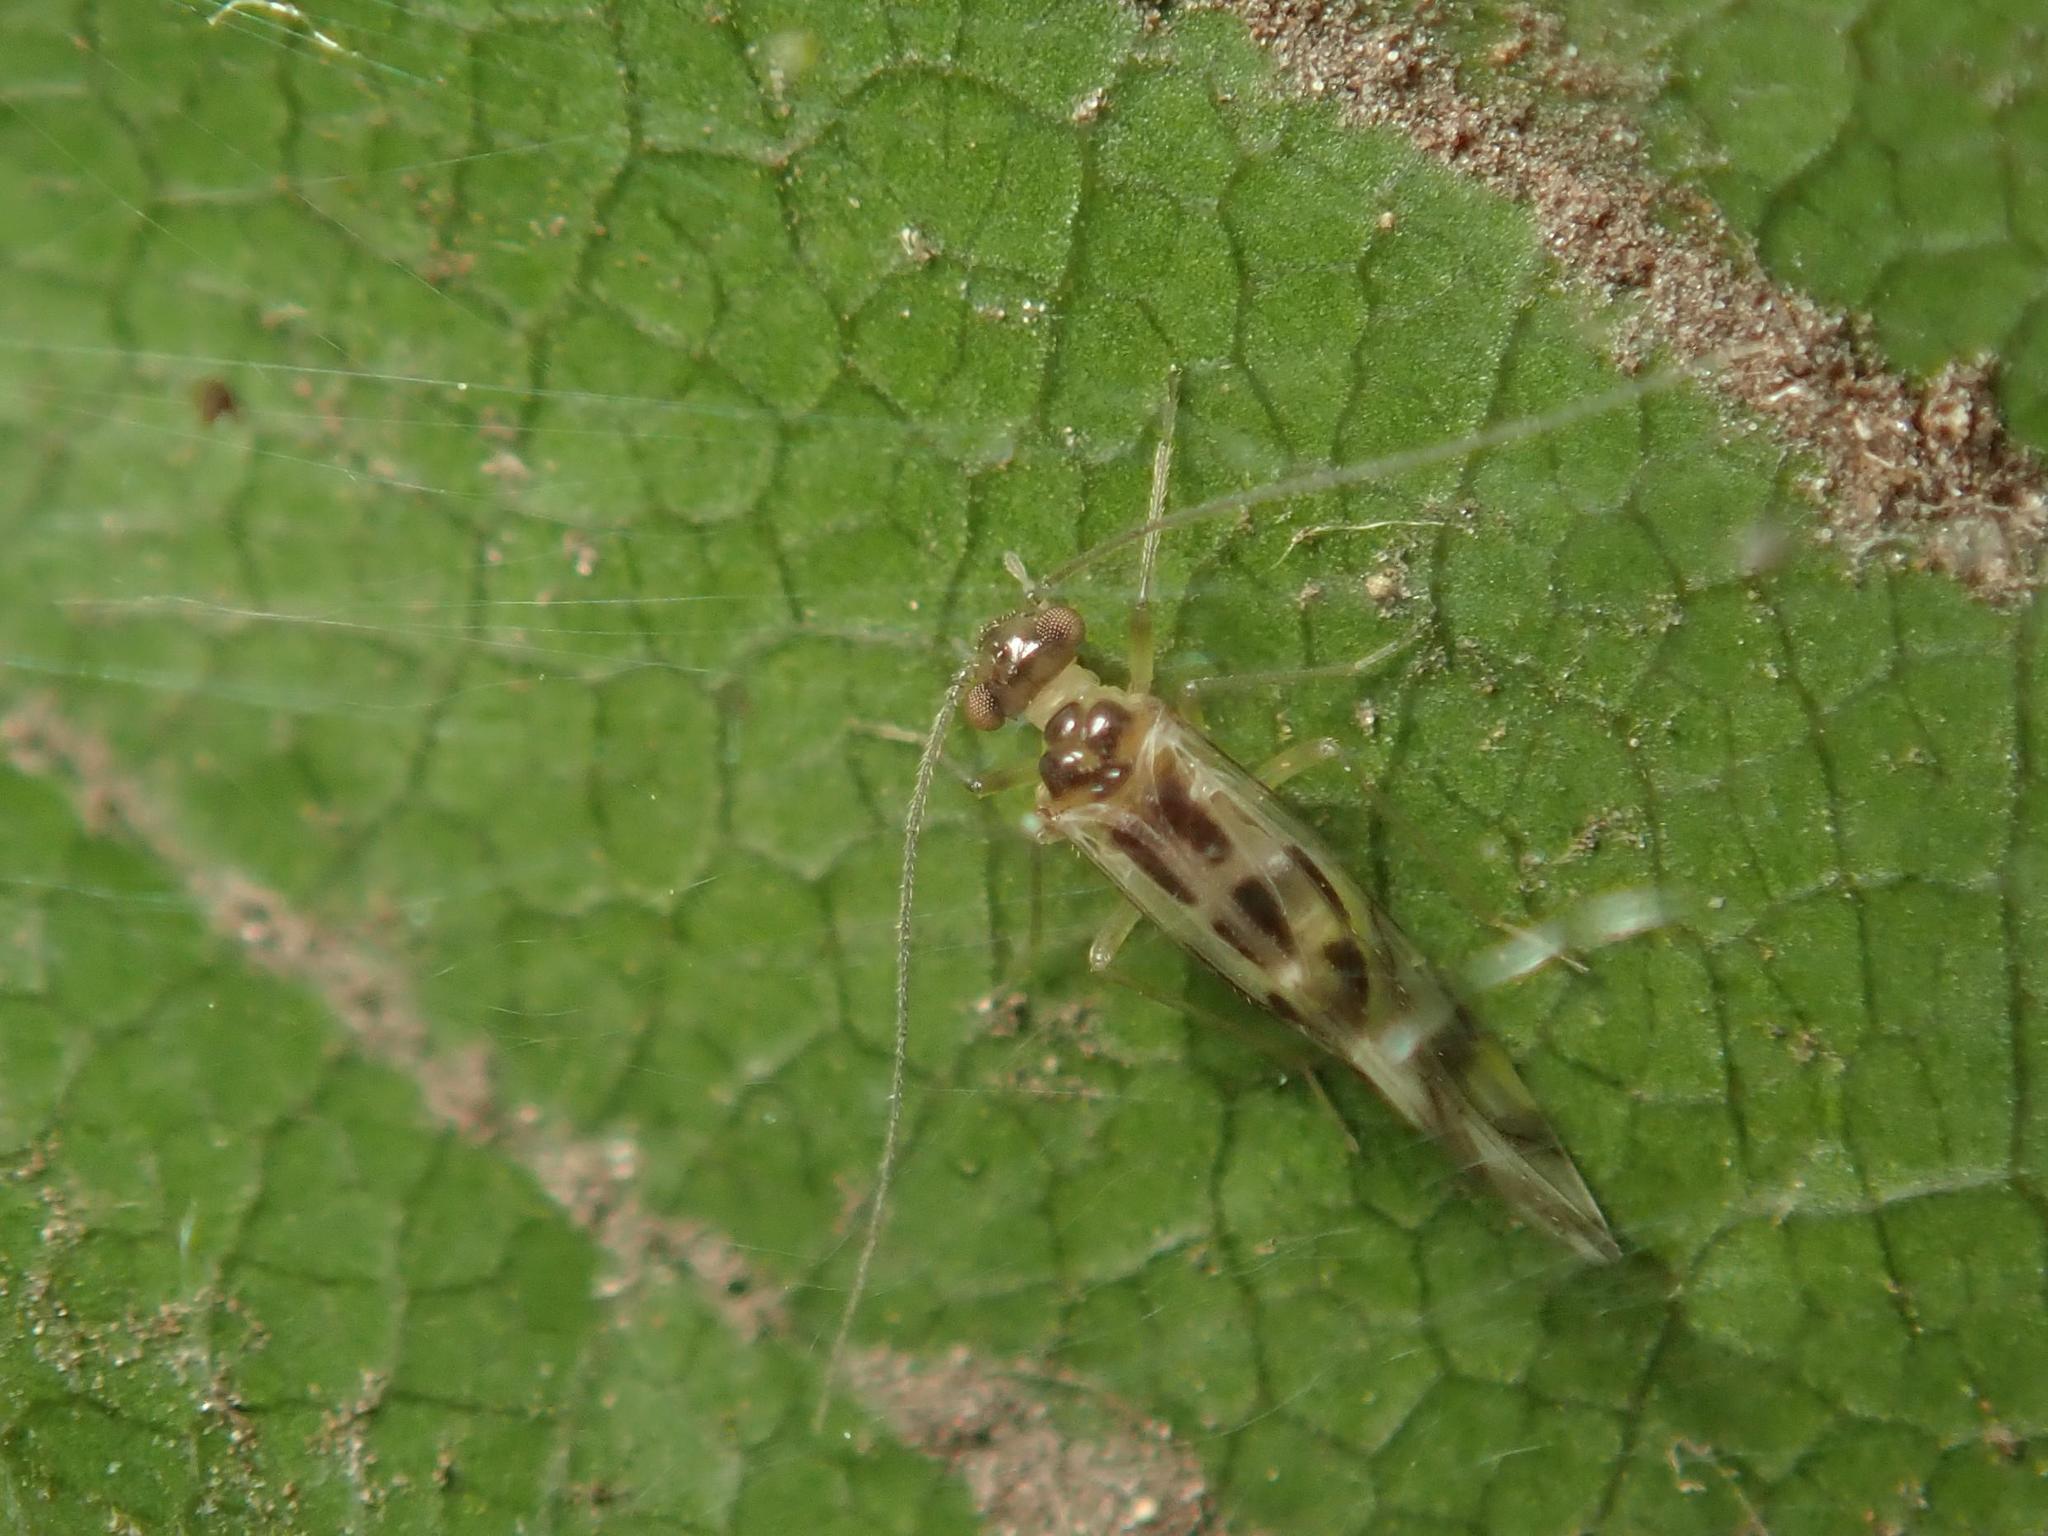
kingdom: Animalia
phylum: Arthropoda
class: Insecta
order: Psocodea
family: Stenopsocidae
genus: Graphopsocus
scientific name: Graphopsocus cruciatus
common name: Lizard bark louse
